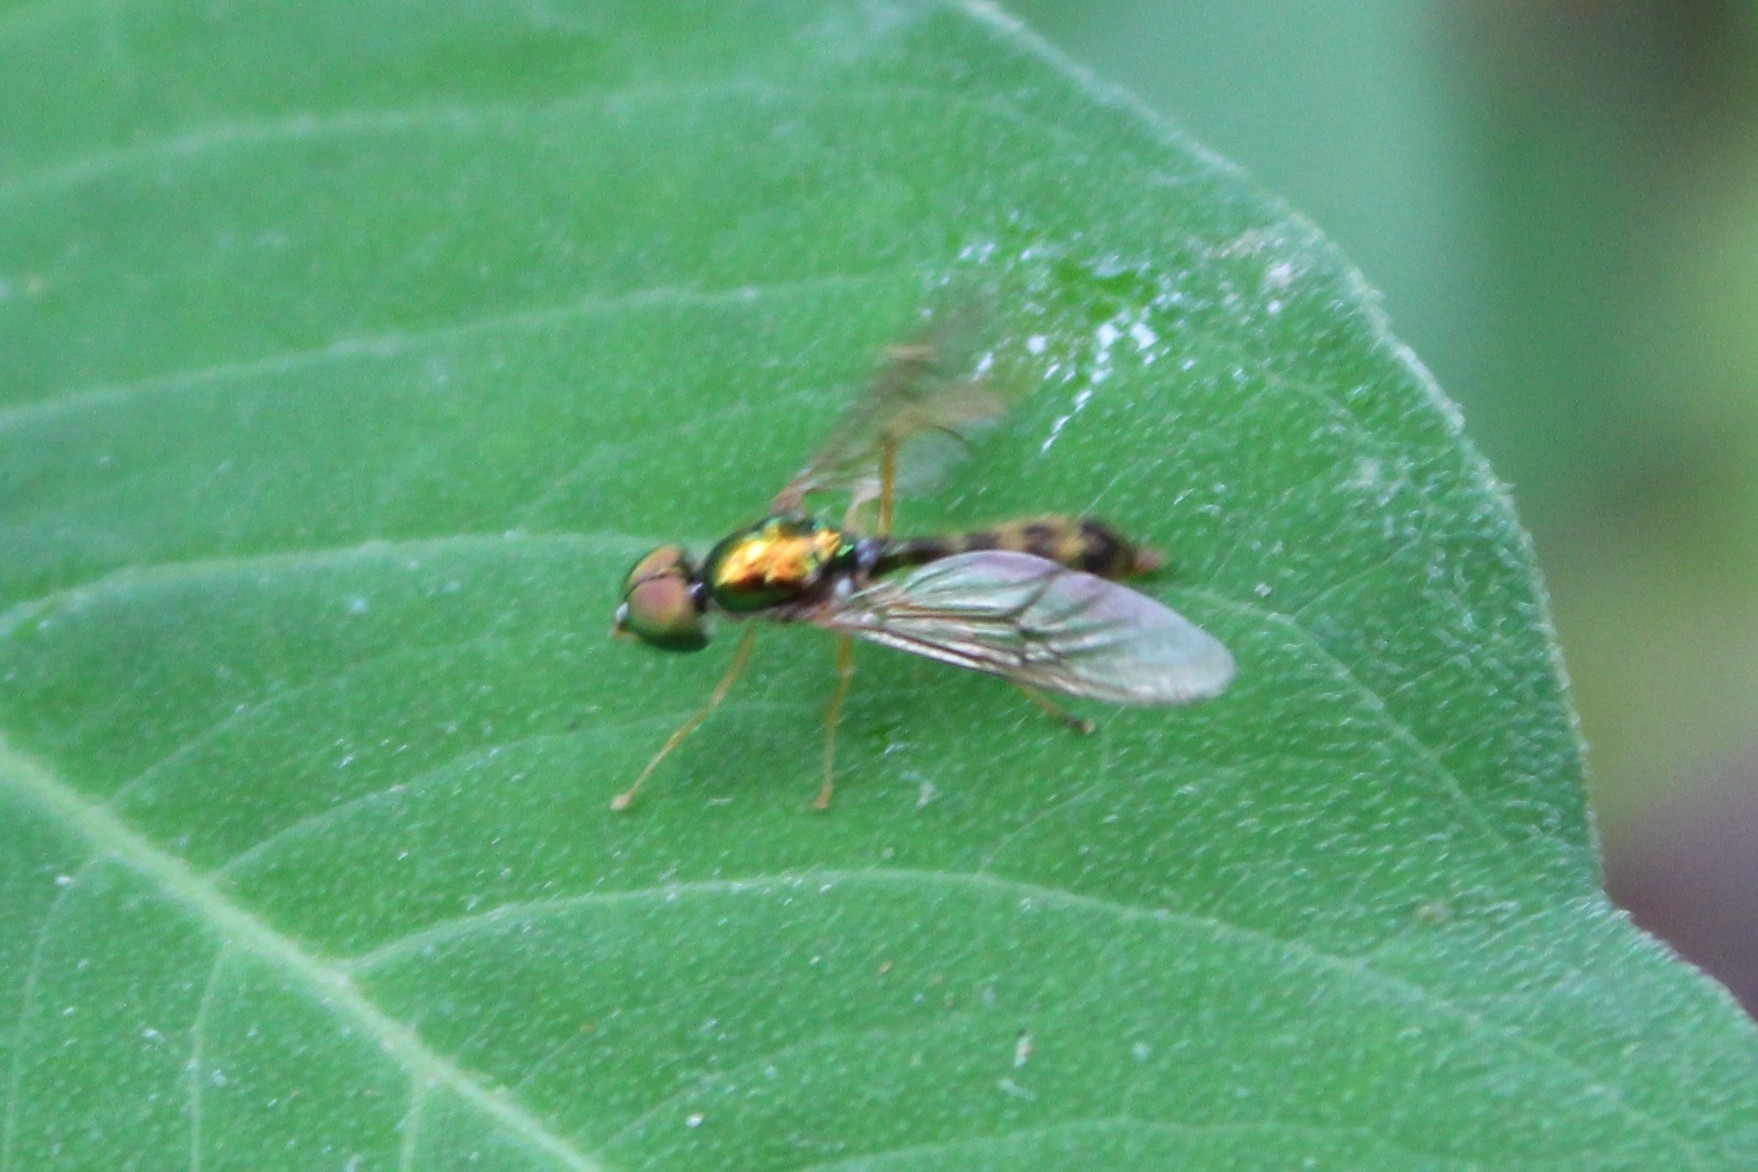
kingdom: Animalia
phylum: Arthropoda
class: Insecta
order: Diptera
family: Stratiomyidae
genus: Sargus
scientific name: Sargus fasciatus
